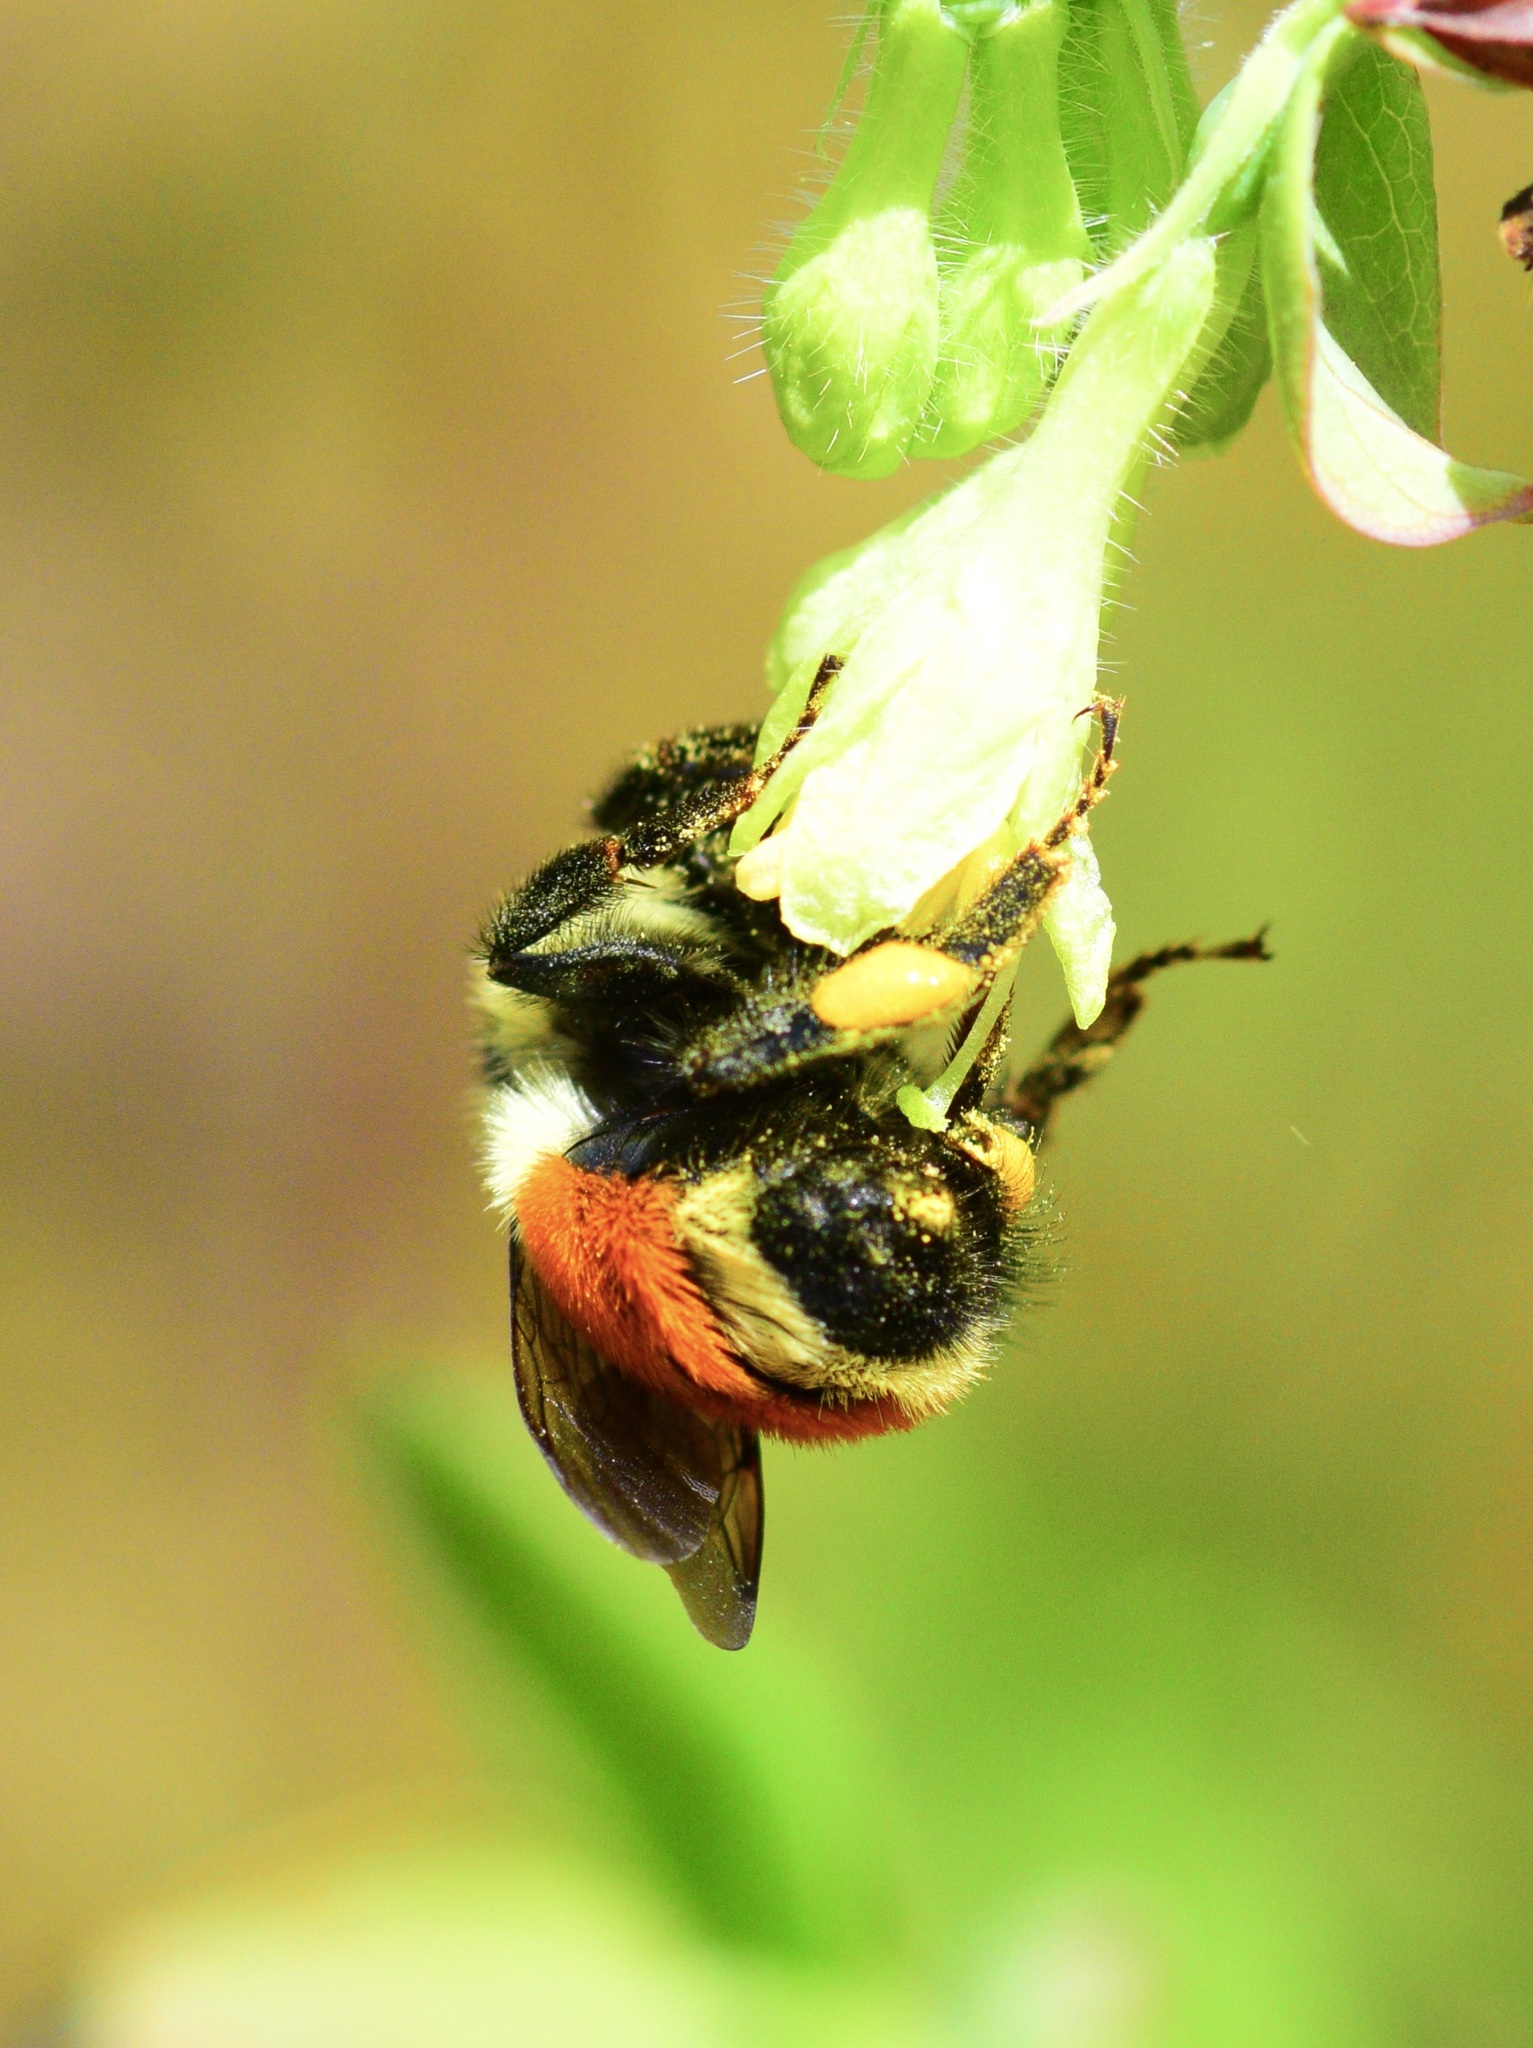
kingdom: Animalia
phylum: Arthropoda
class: Insecta
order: Hymenoptera
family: Apidae
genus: Bombus
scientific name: Bombus ternarius
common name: Tri-colored bumble bee
